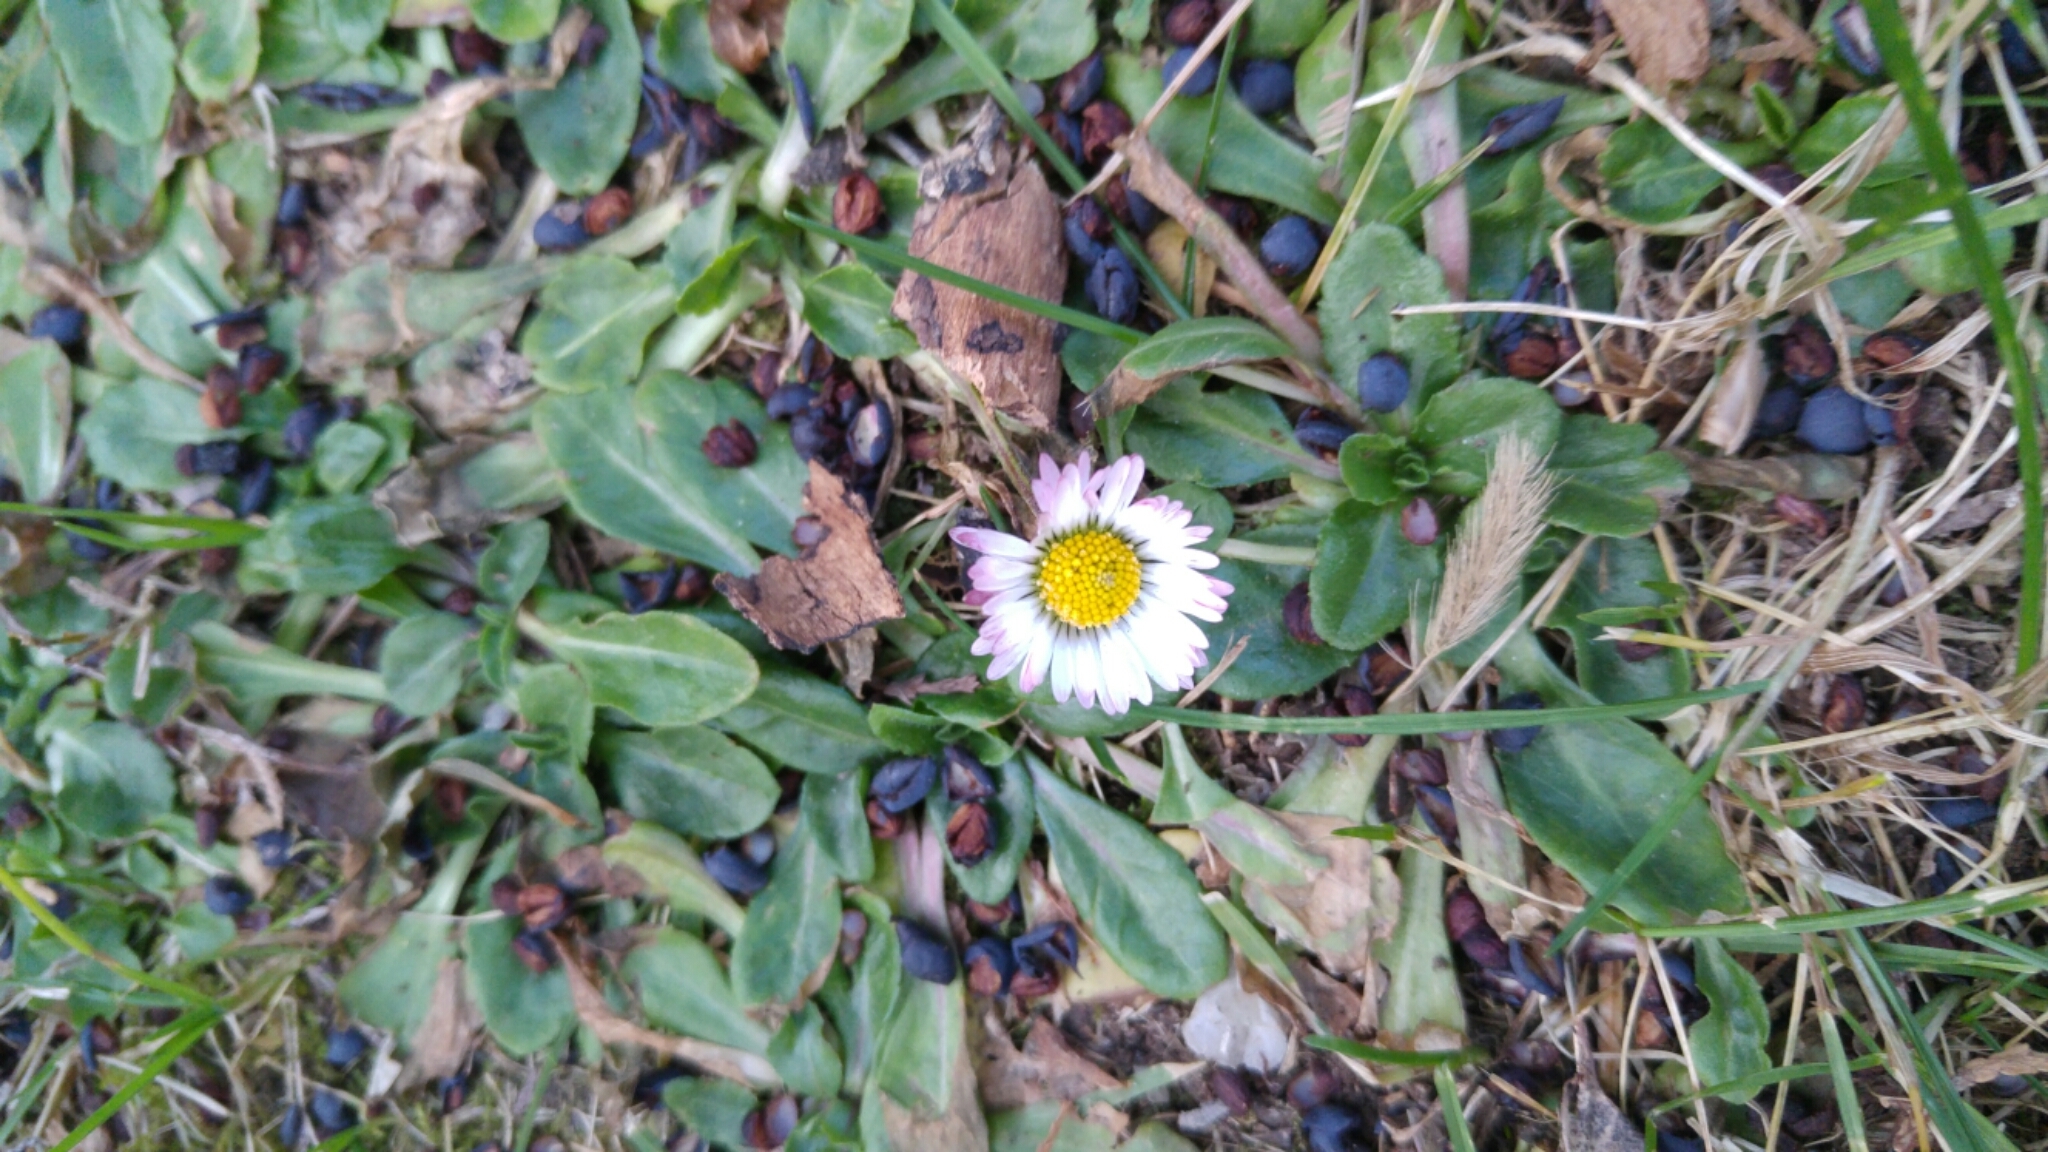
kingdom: Plantae
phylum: Tracheophyta
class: Magnoliopsida
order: Asterales
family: Asteraceae
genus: Bellis
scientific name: Bellis perennis
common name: Lawndaisy
